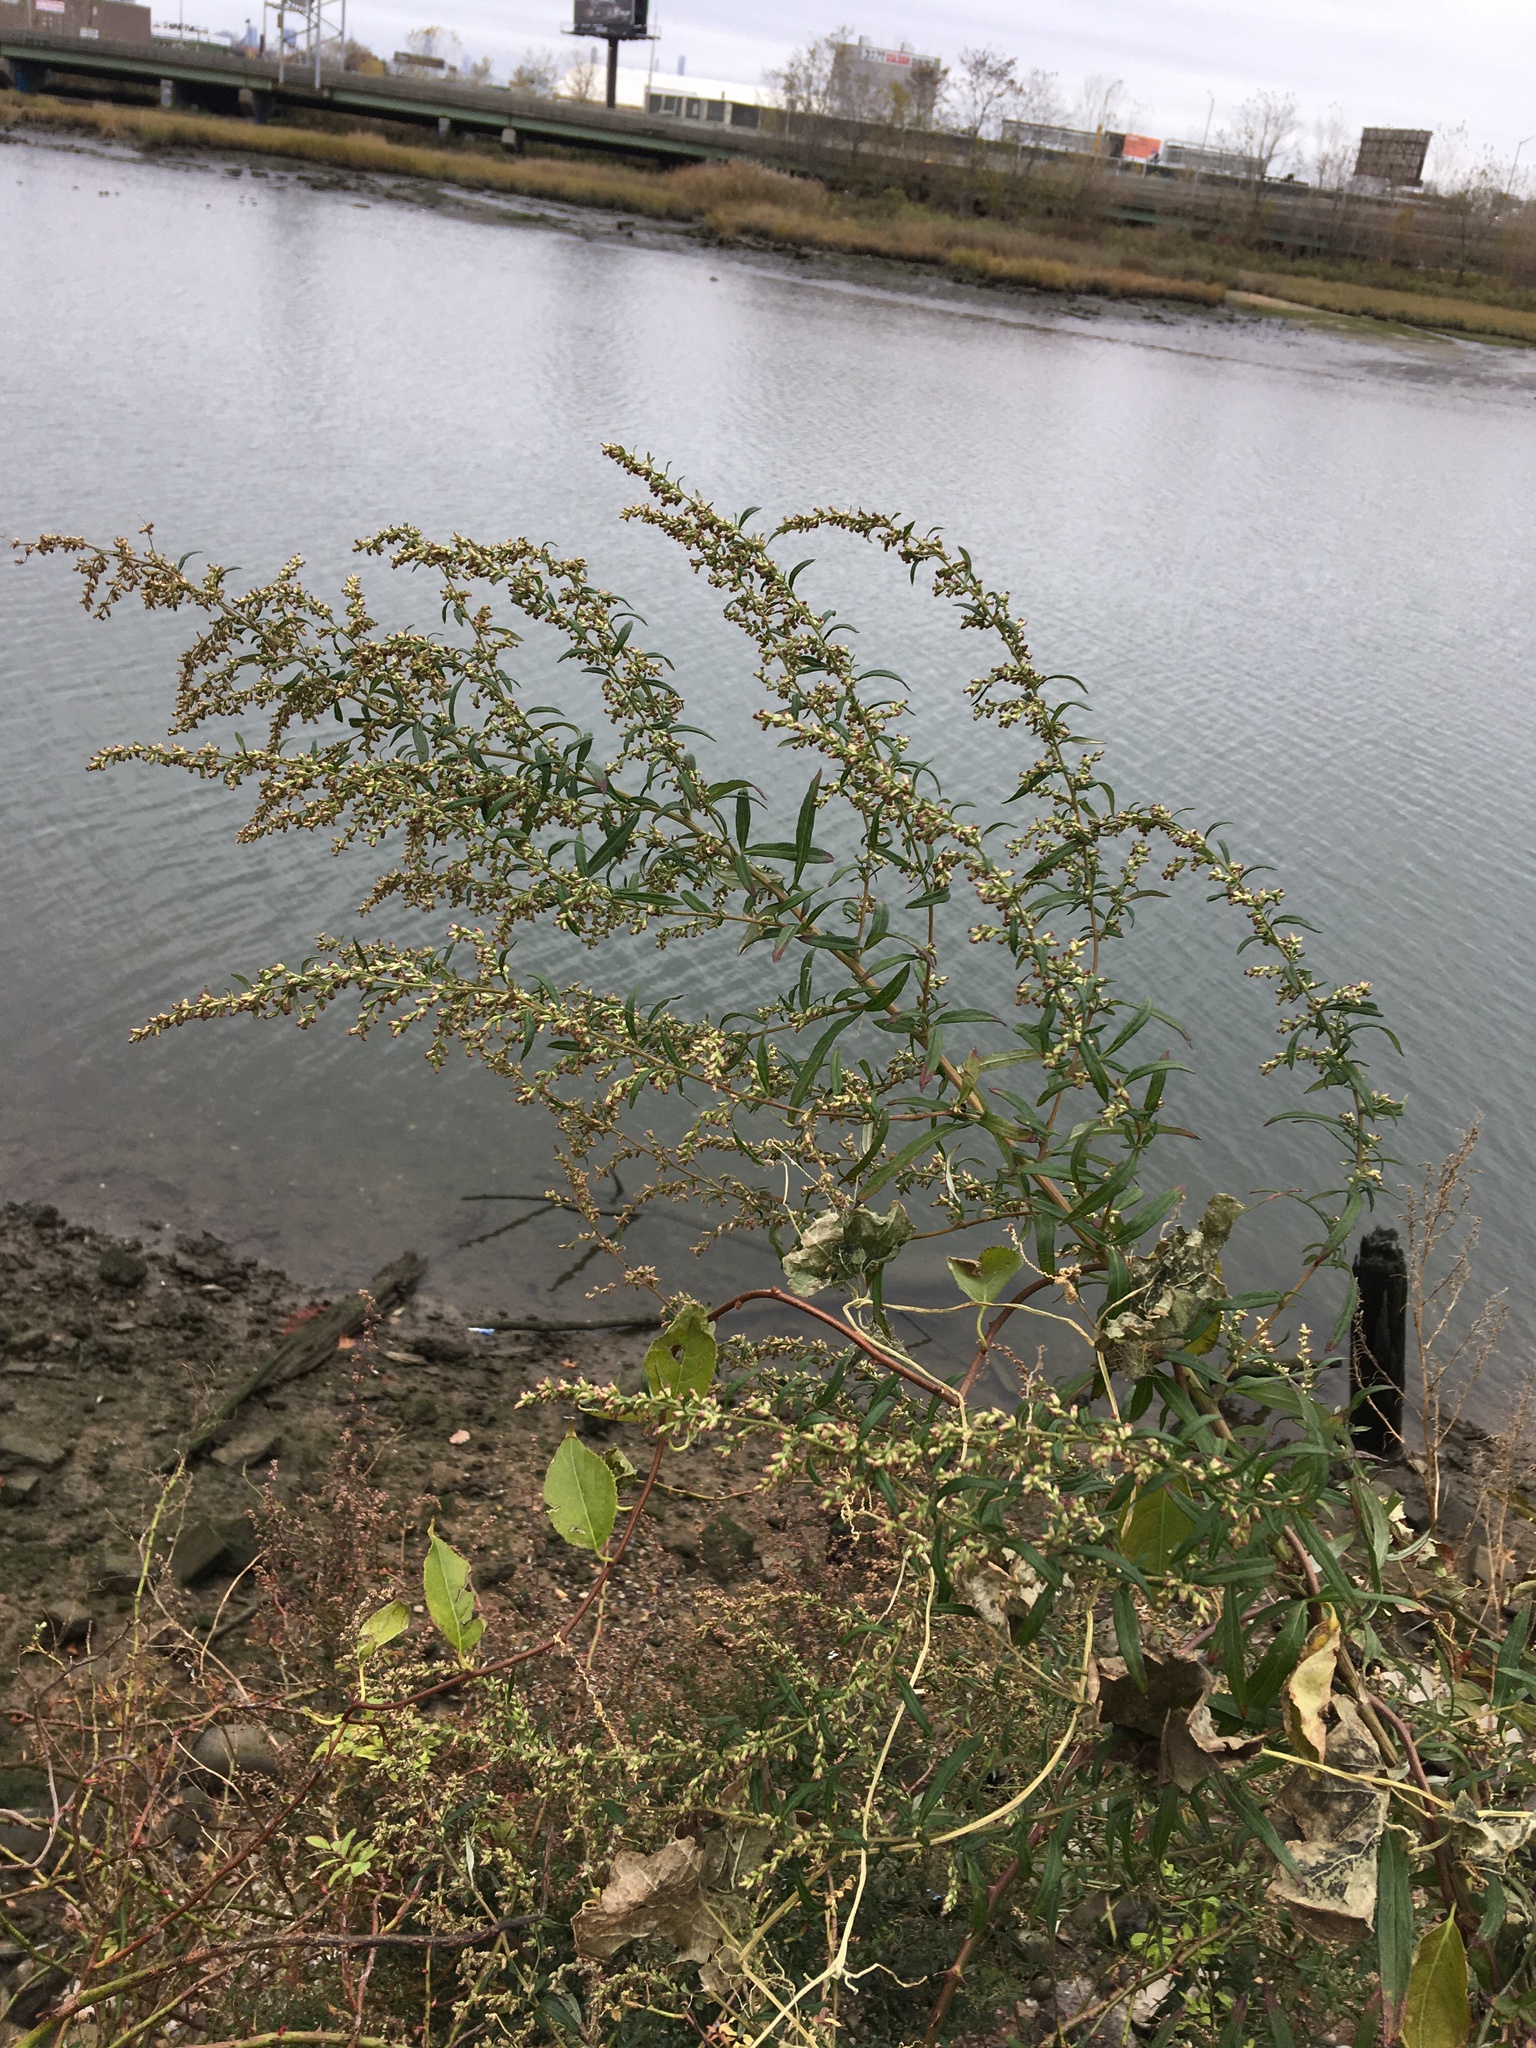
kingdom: Plantae
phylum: Tracheophyta
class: Magnoliopsida
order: Asterales
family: Asteraceae
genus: Artemisia
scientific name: Artemisia vulgaris
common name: Mugwort
